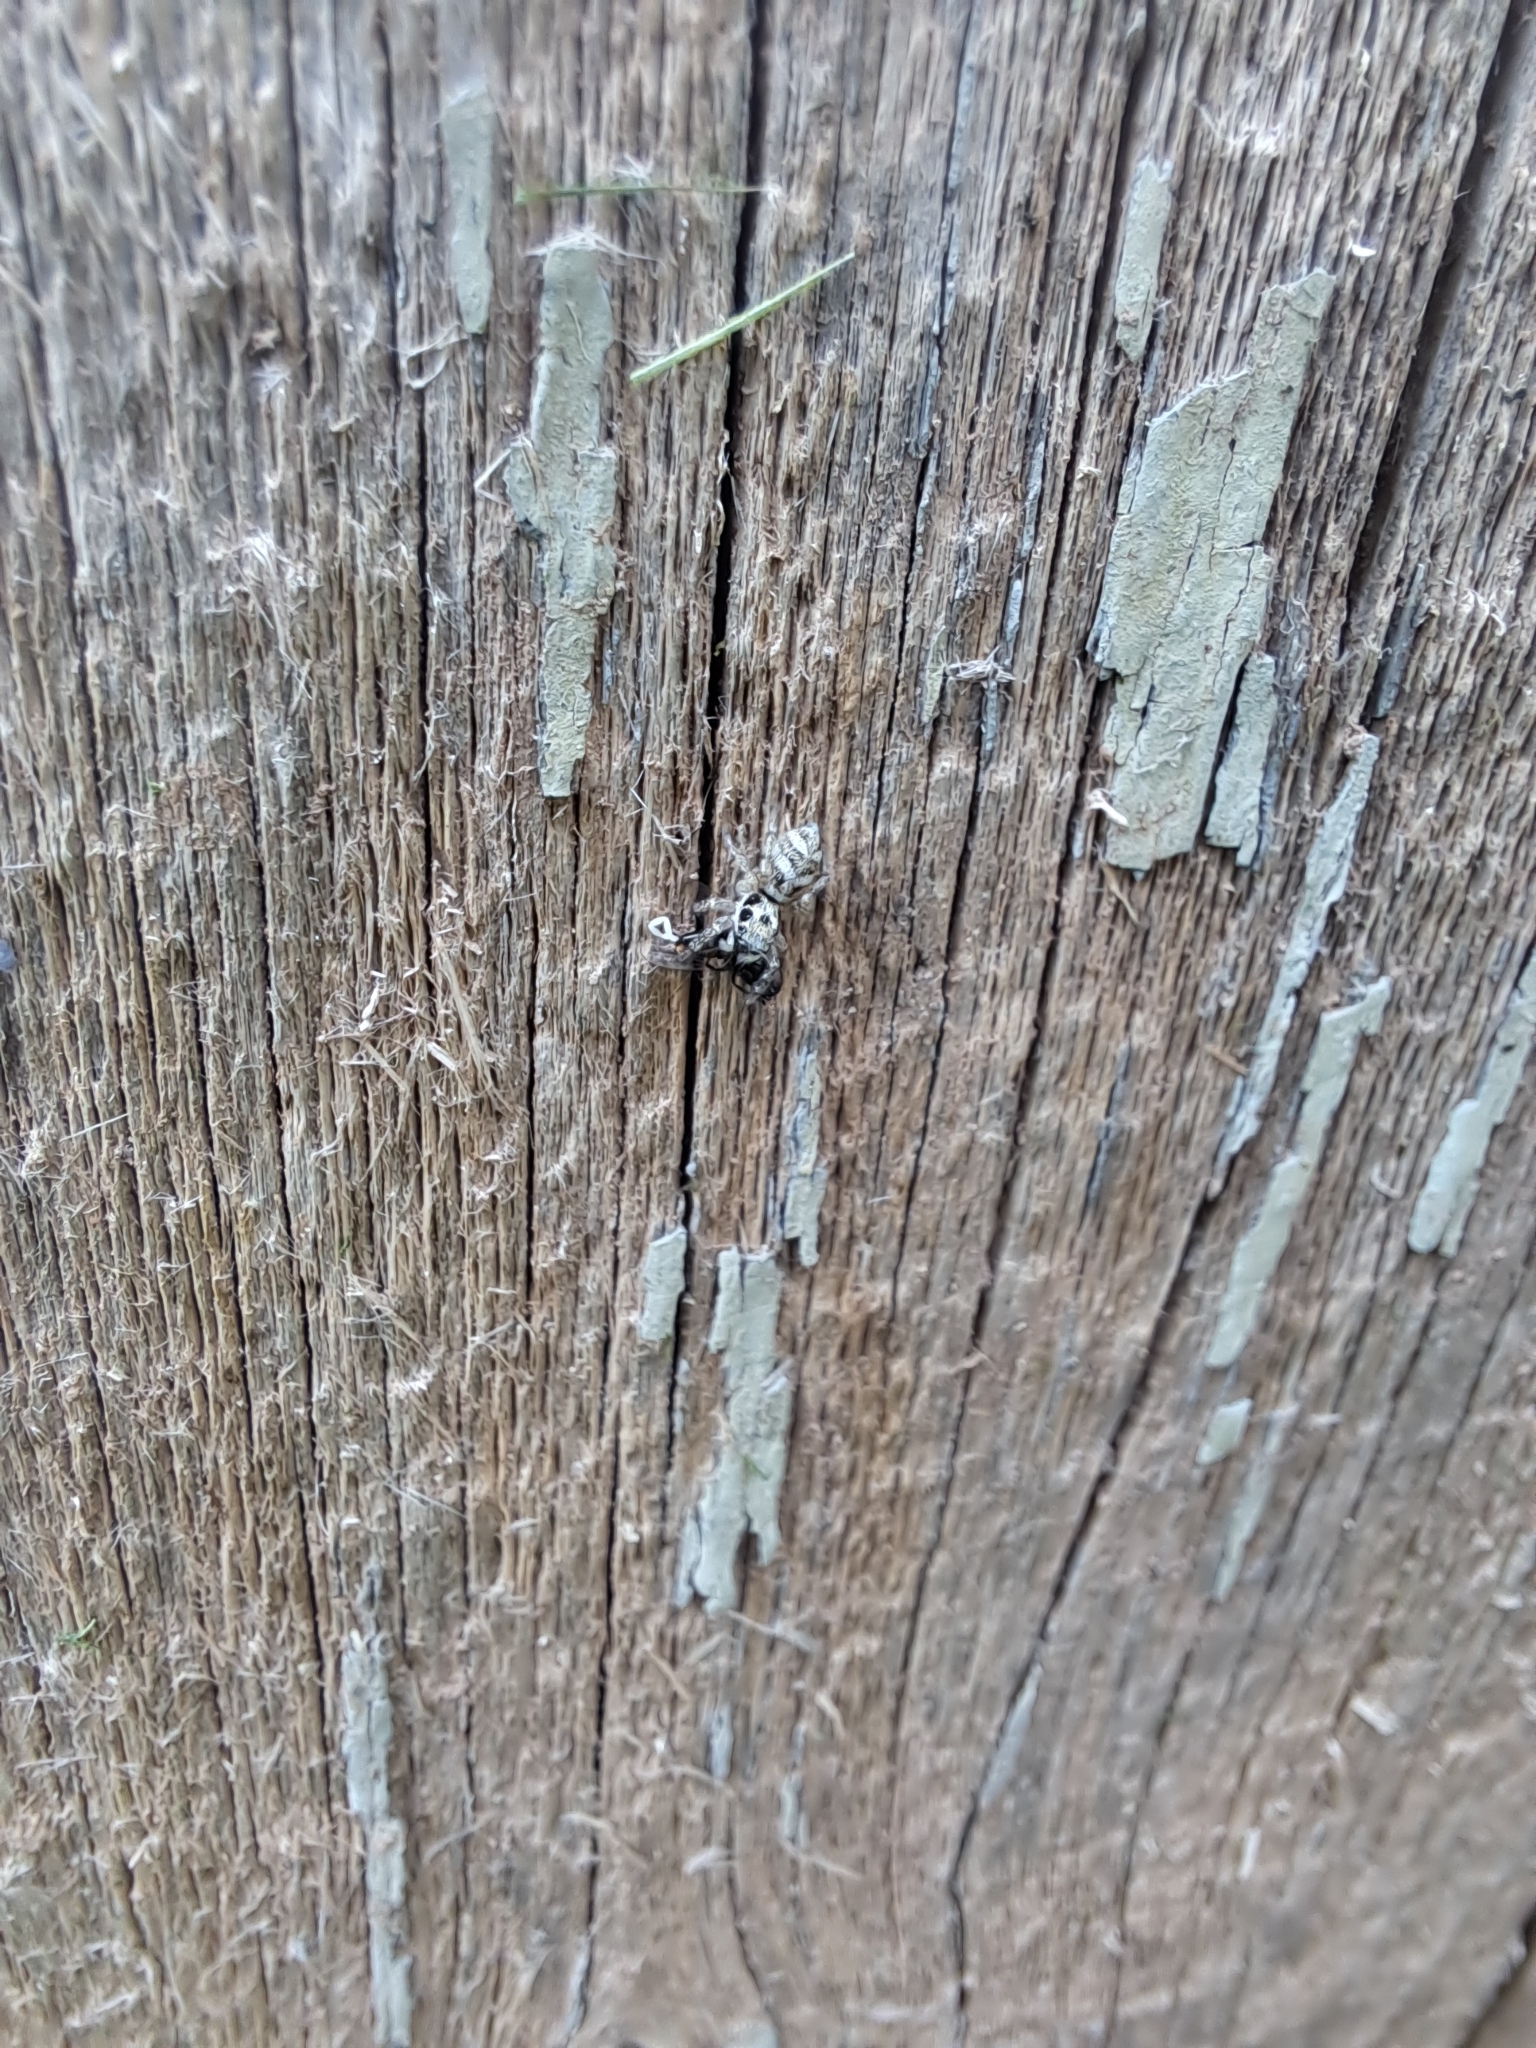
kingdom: Animalia
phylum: Arthropoda
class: Arachnida
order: Araneae
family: Salticidae
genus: Salticus
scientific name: Salticus scenicus
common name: Zebra jumper
